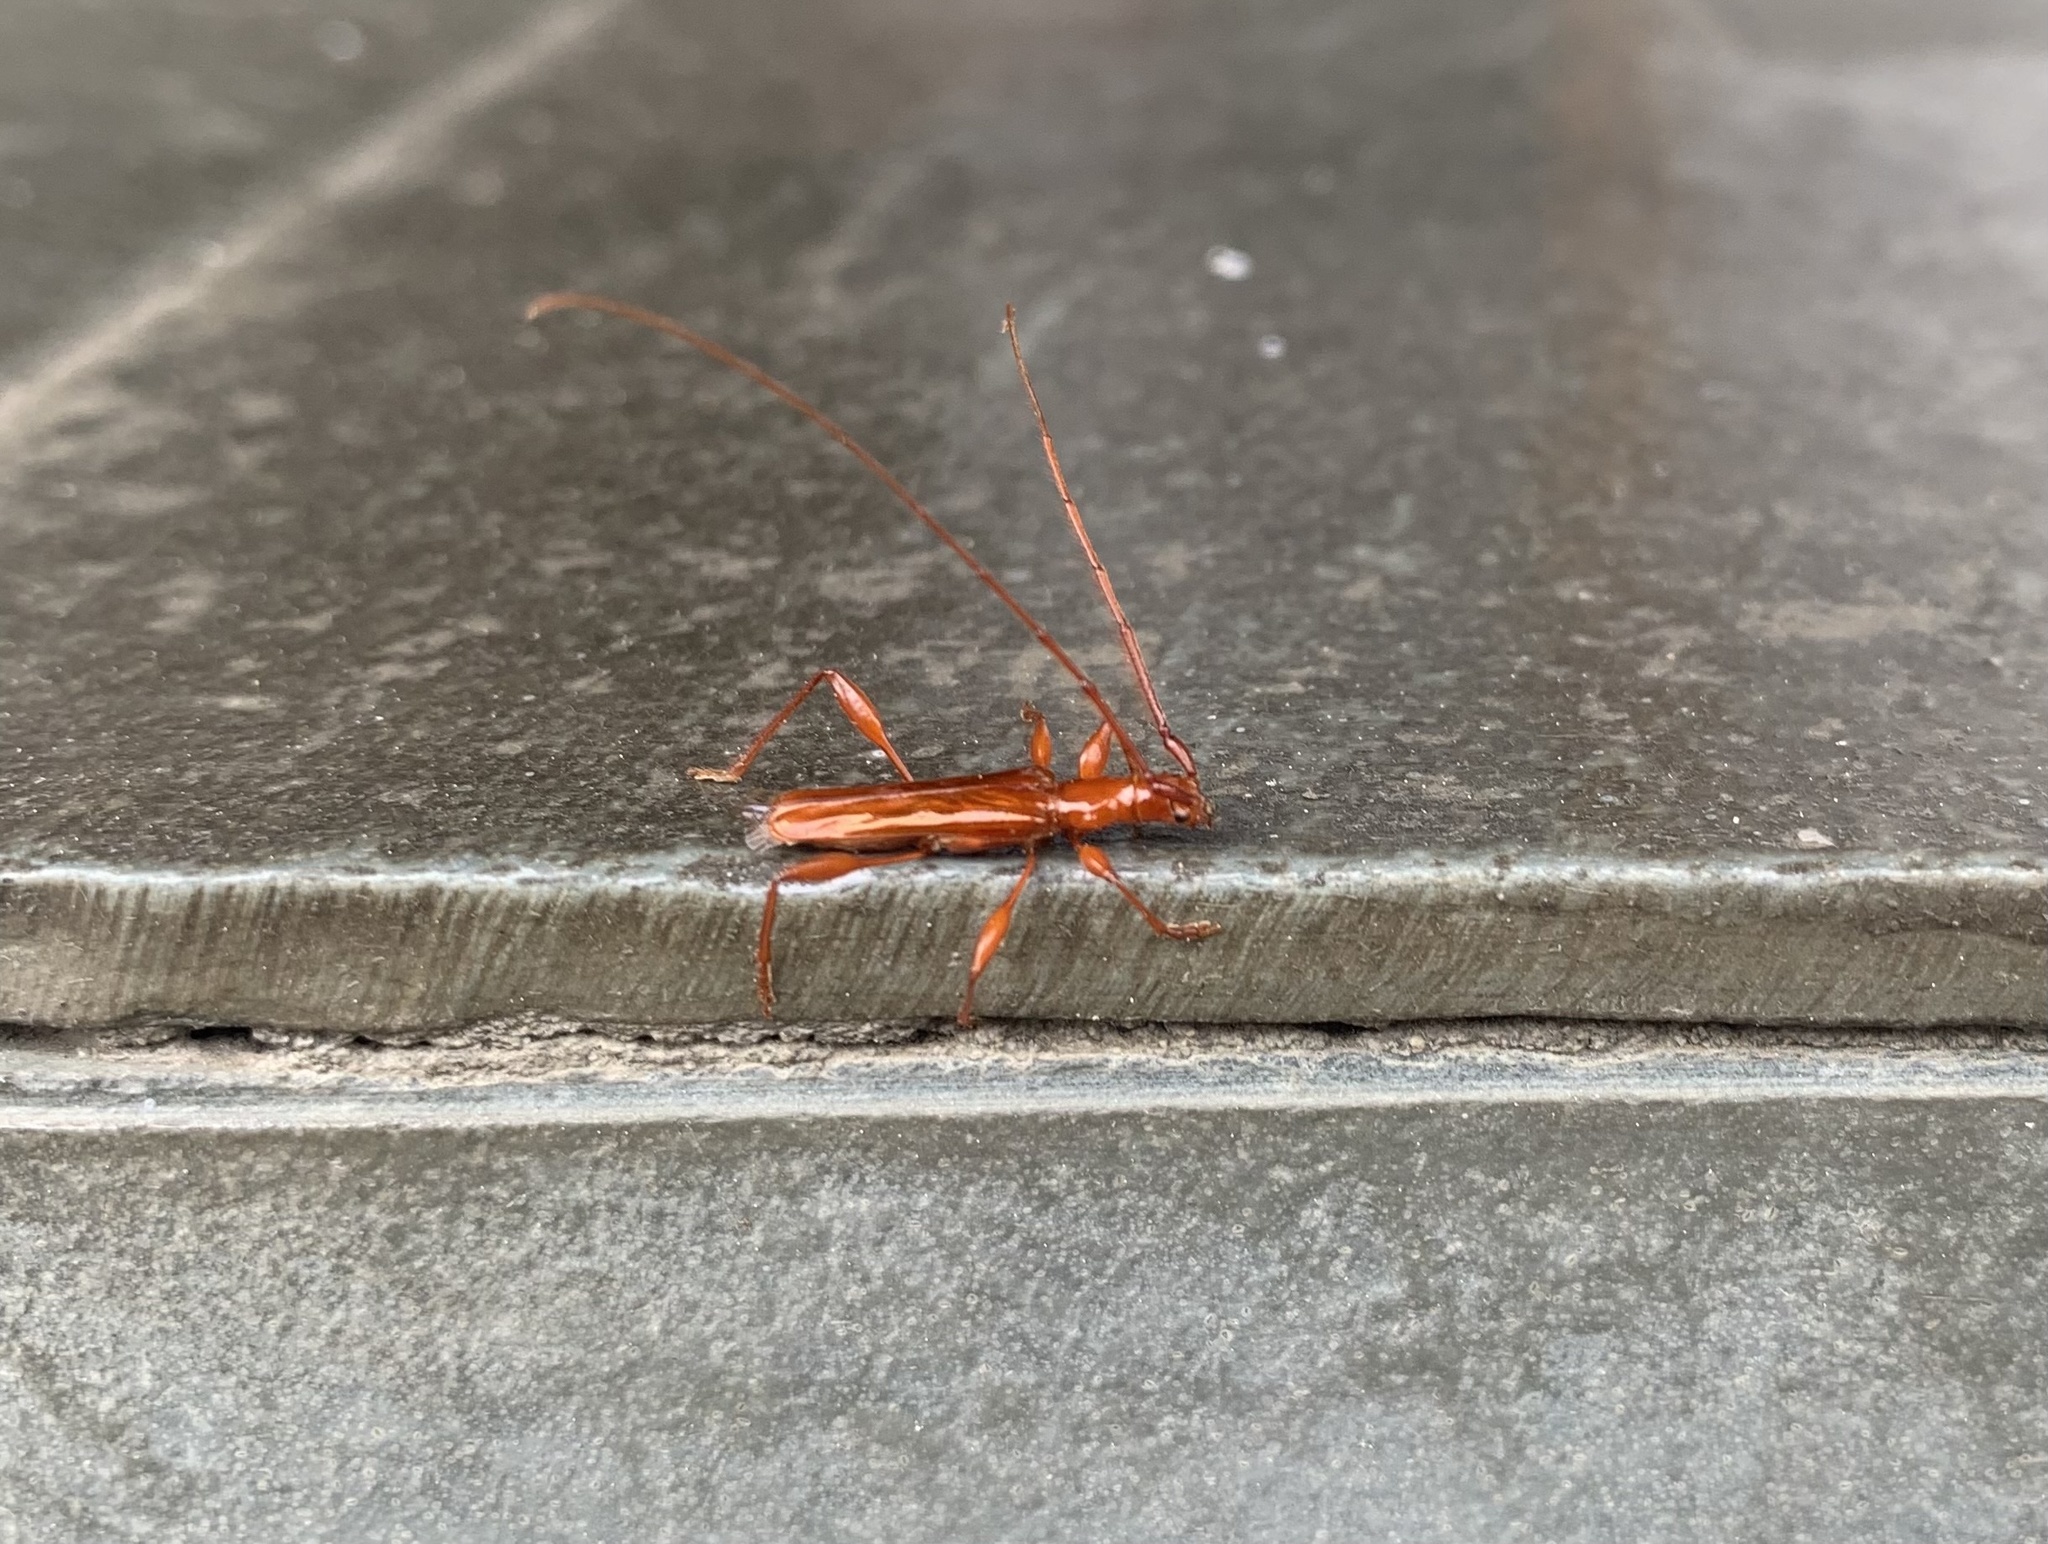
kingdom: Animalia
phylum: Arthropoda
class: Insecta
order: Coleoptera
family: Cerambycidae
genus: Chenoderus
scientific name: Chenoderus testaceus
